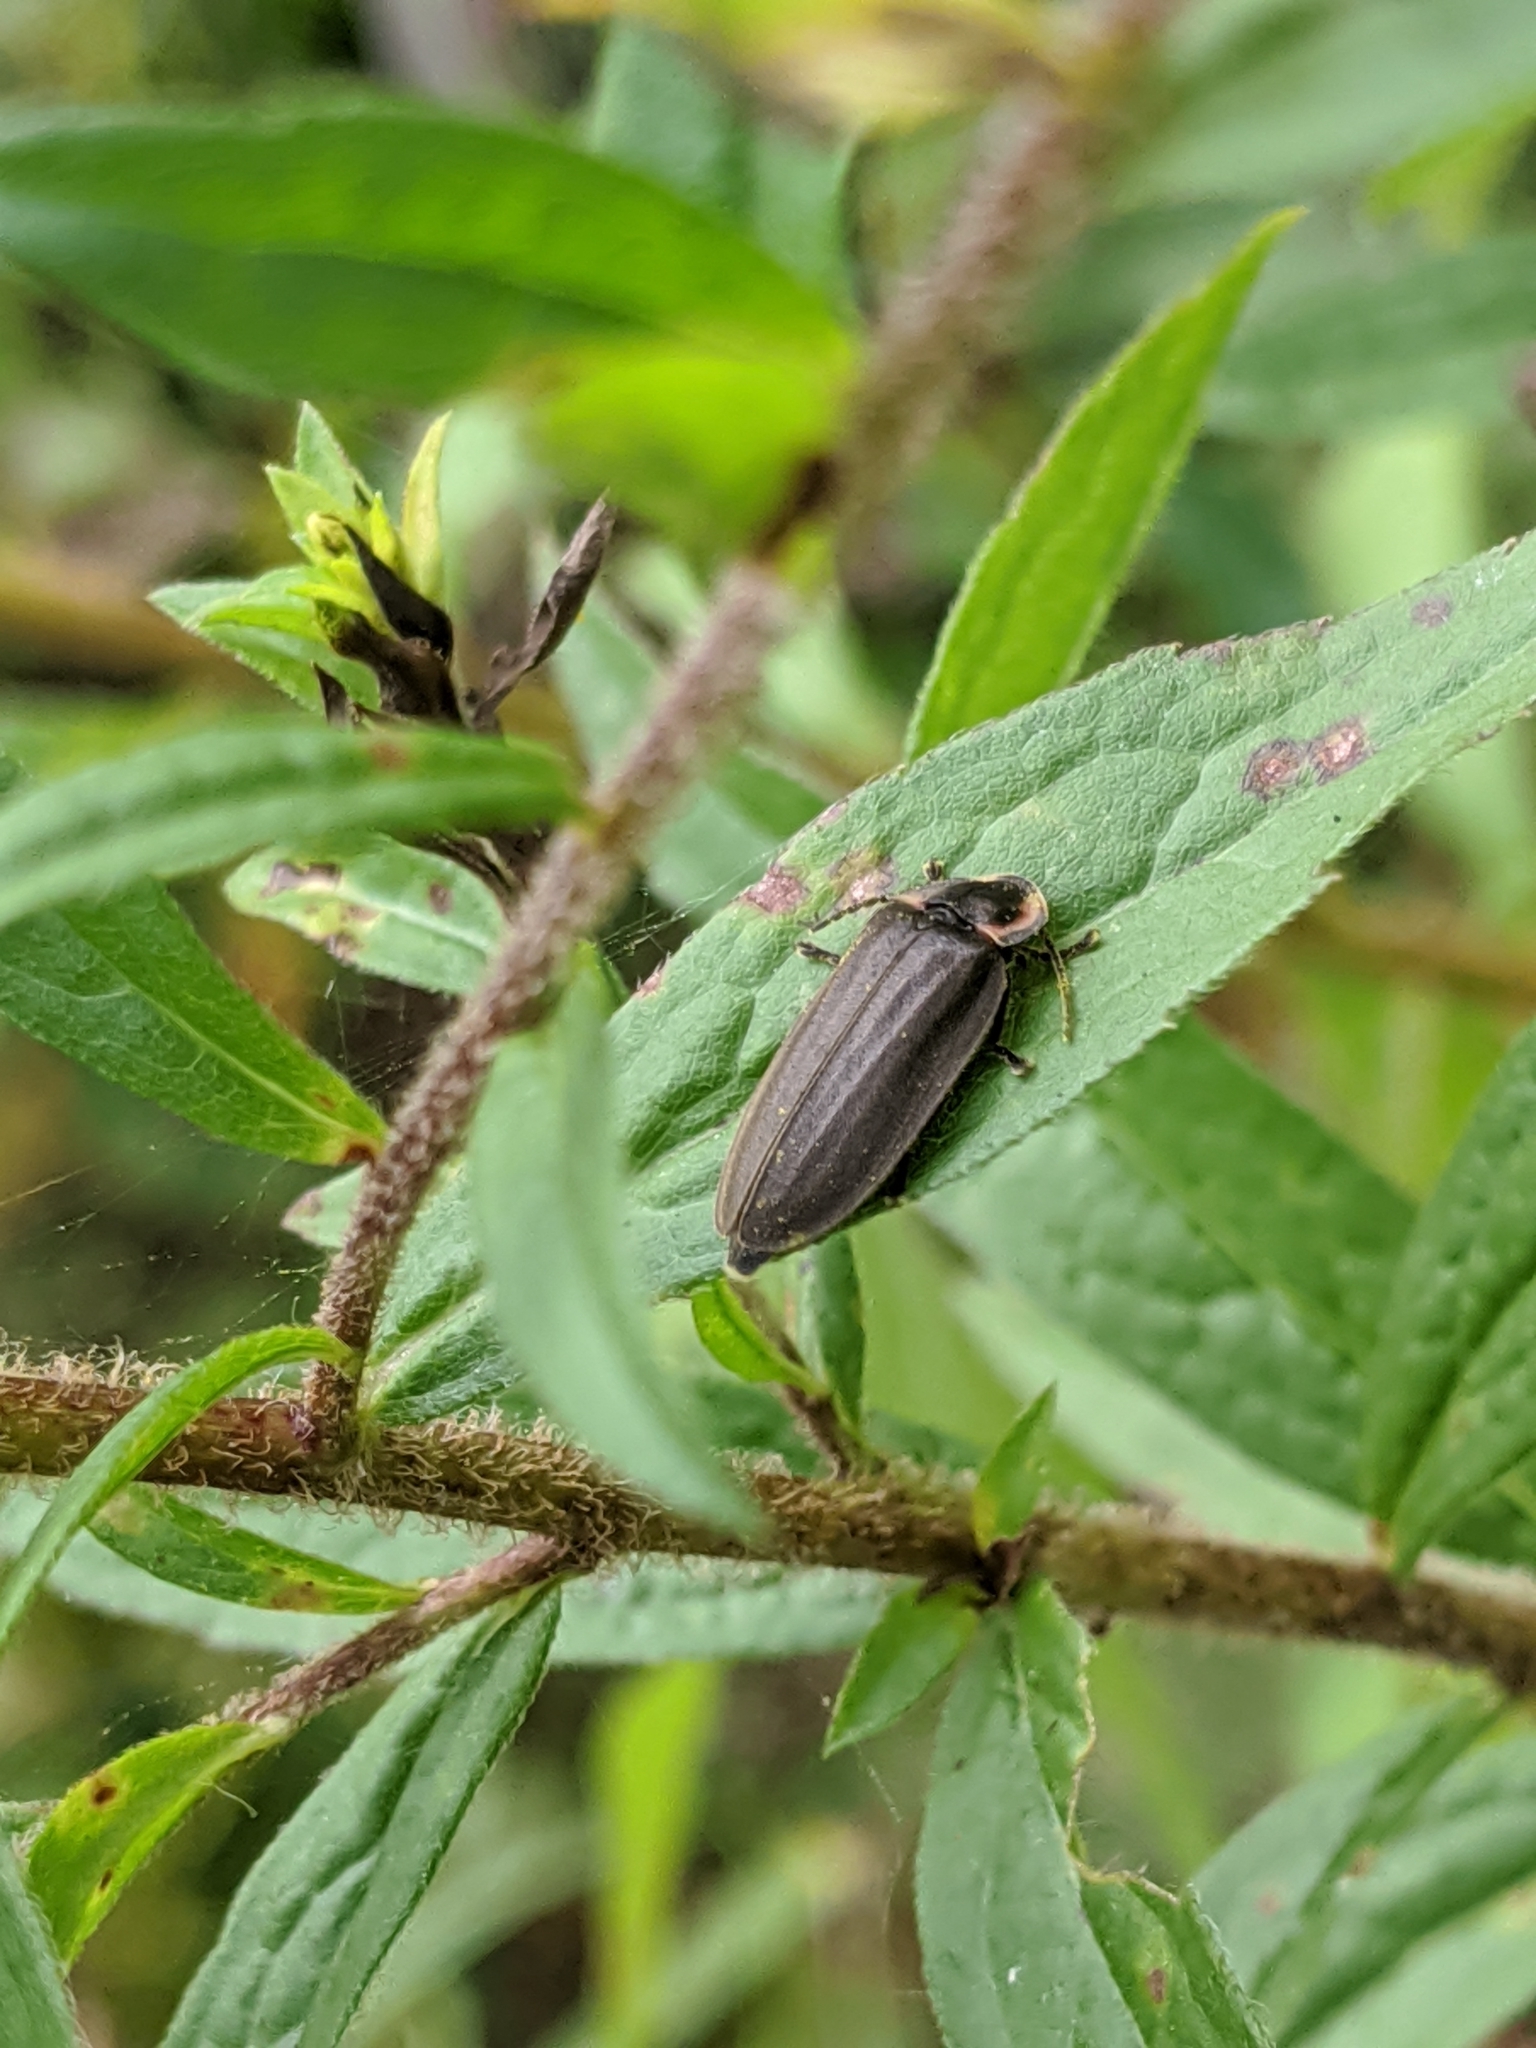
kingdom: Animalia
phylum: Arthropoda
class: Insecta
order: Coleoptera
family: Lampyridae
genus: Photinus
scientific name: Photinus corrusca
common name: Winter firefly
